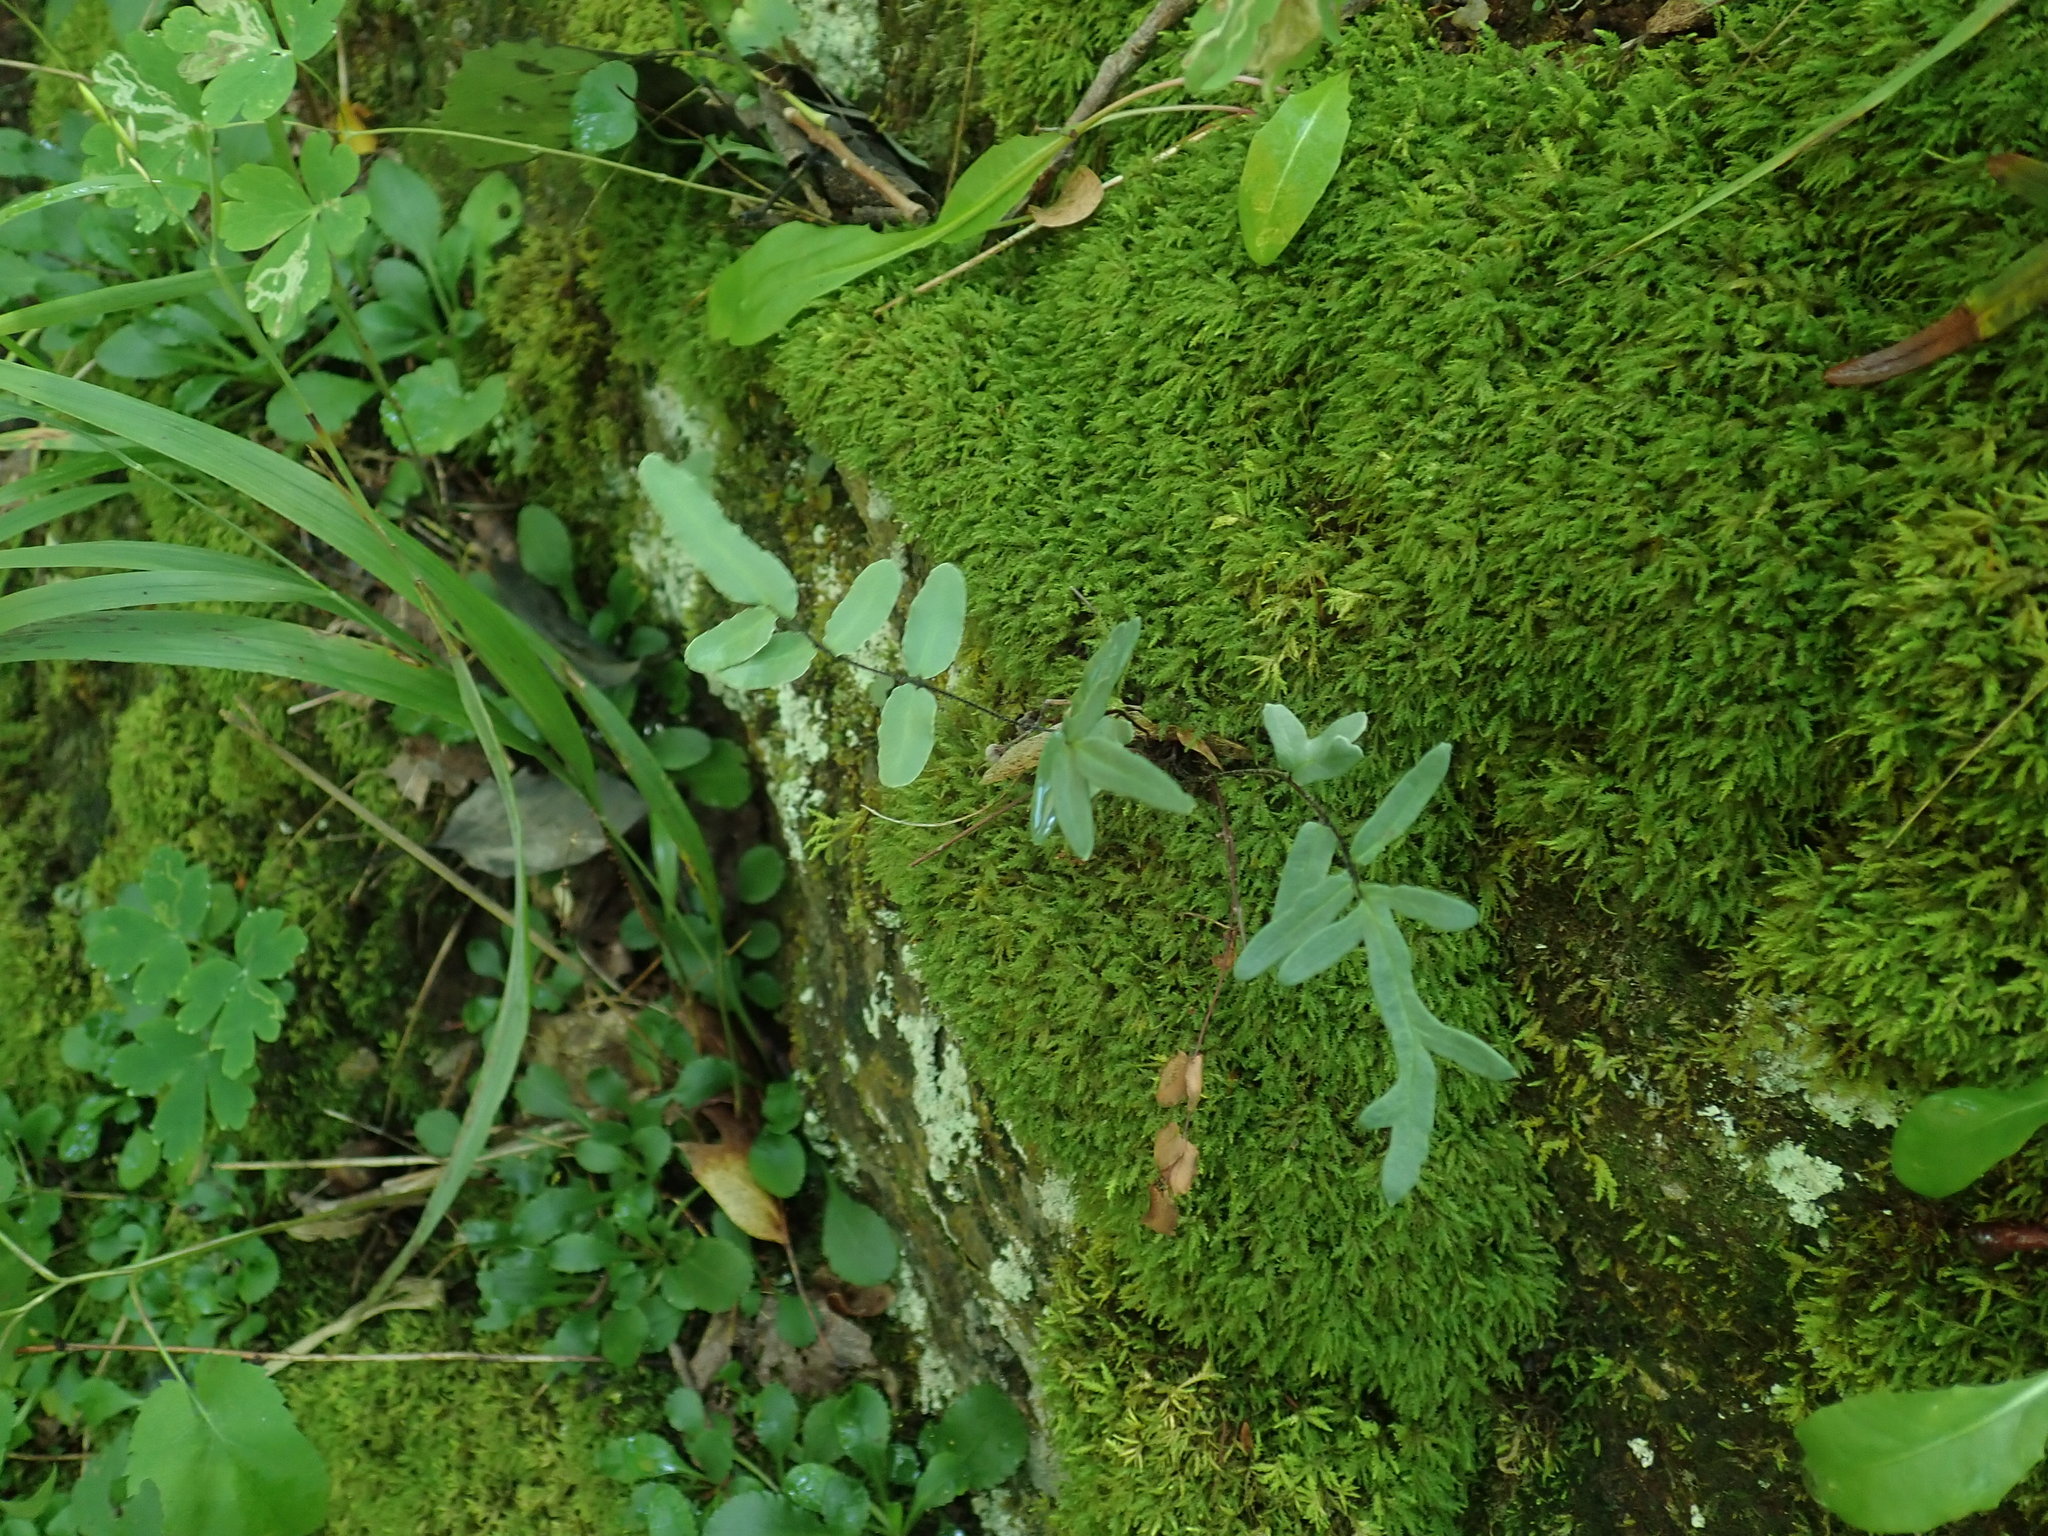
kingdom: Plantae
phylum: Tracheophyta
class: Polypodiopsida
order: Polypodiales
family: Pteridaceae
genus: Pellaea
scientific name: Pellaea atropurpurea
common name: Hairy cliffbrake
